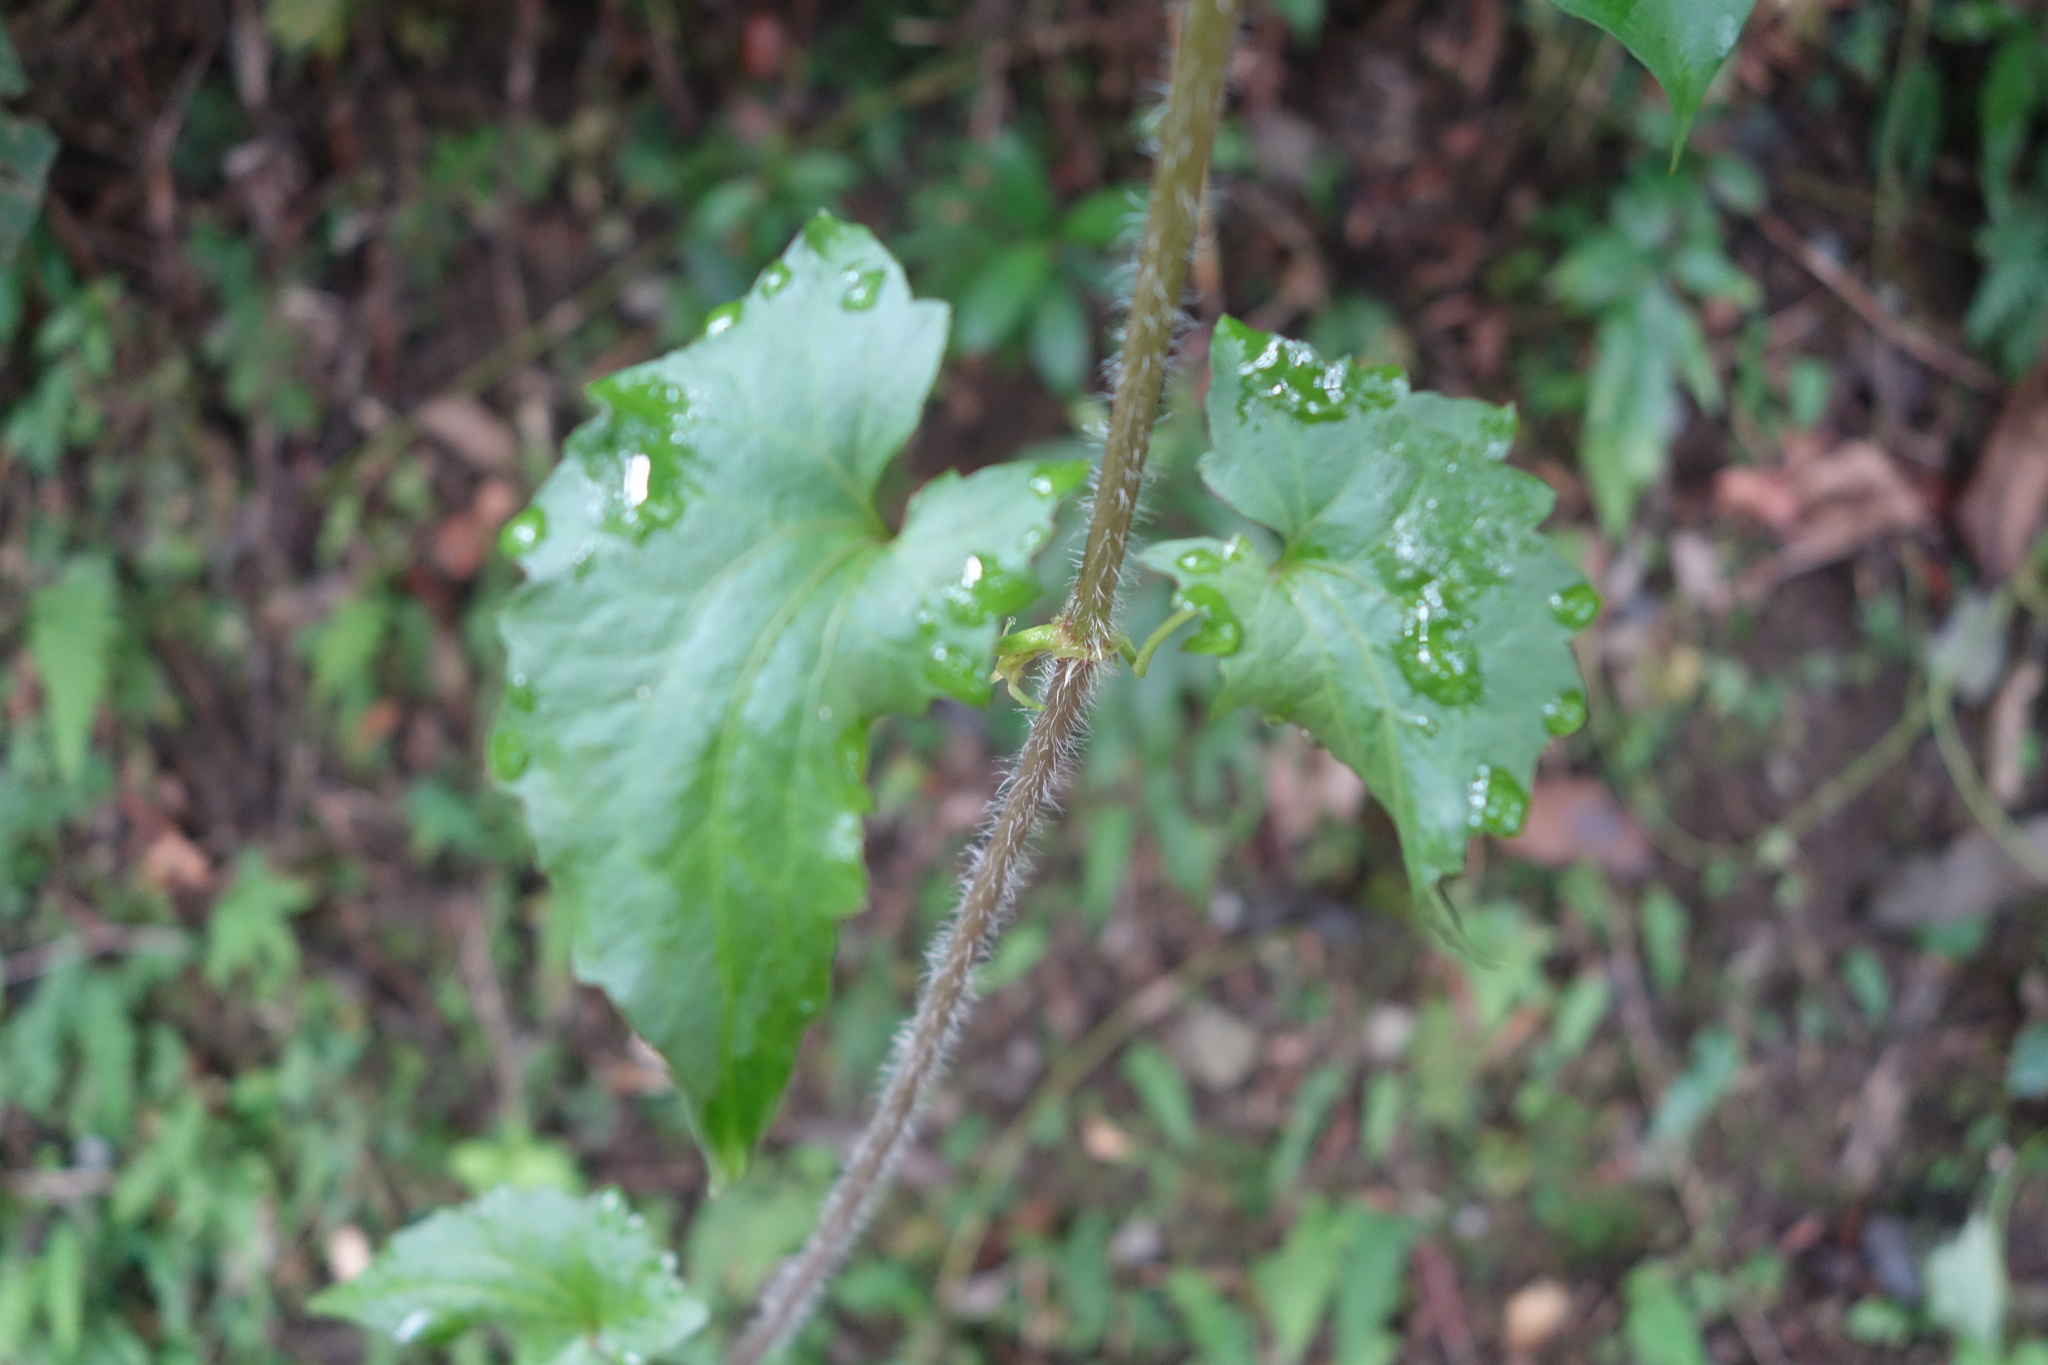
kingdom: Plantae
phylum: Tracheophyta
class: Magnoliopsida
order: Asterales
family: Asteraceae
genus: Mikania
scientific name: Mikania micrantha
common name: Mile-a-minute
